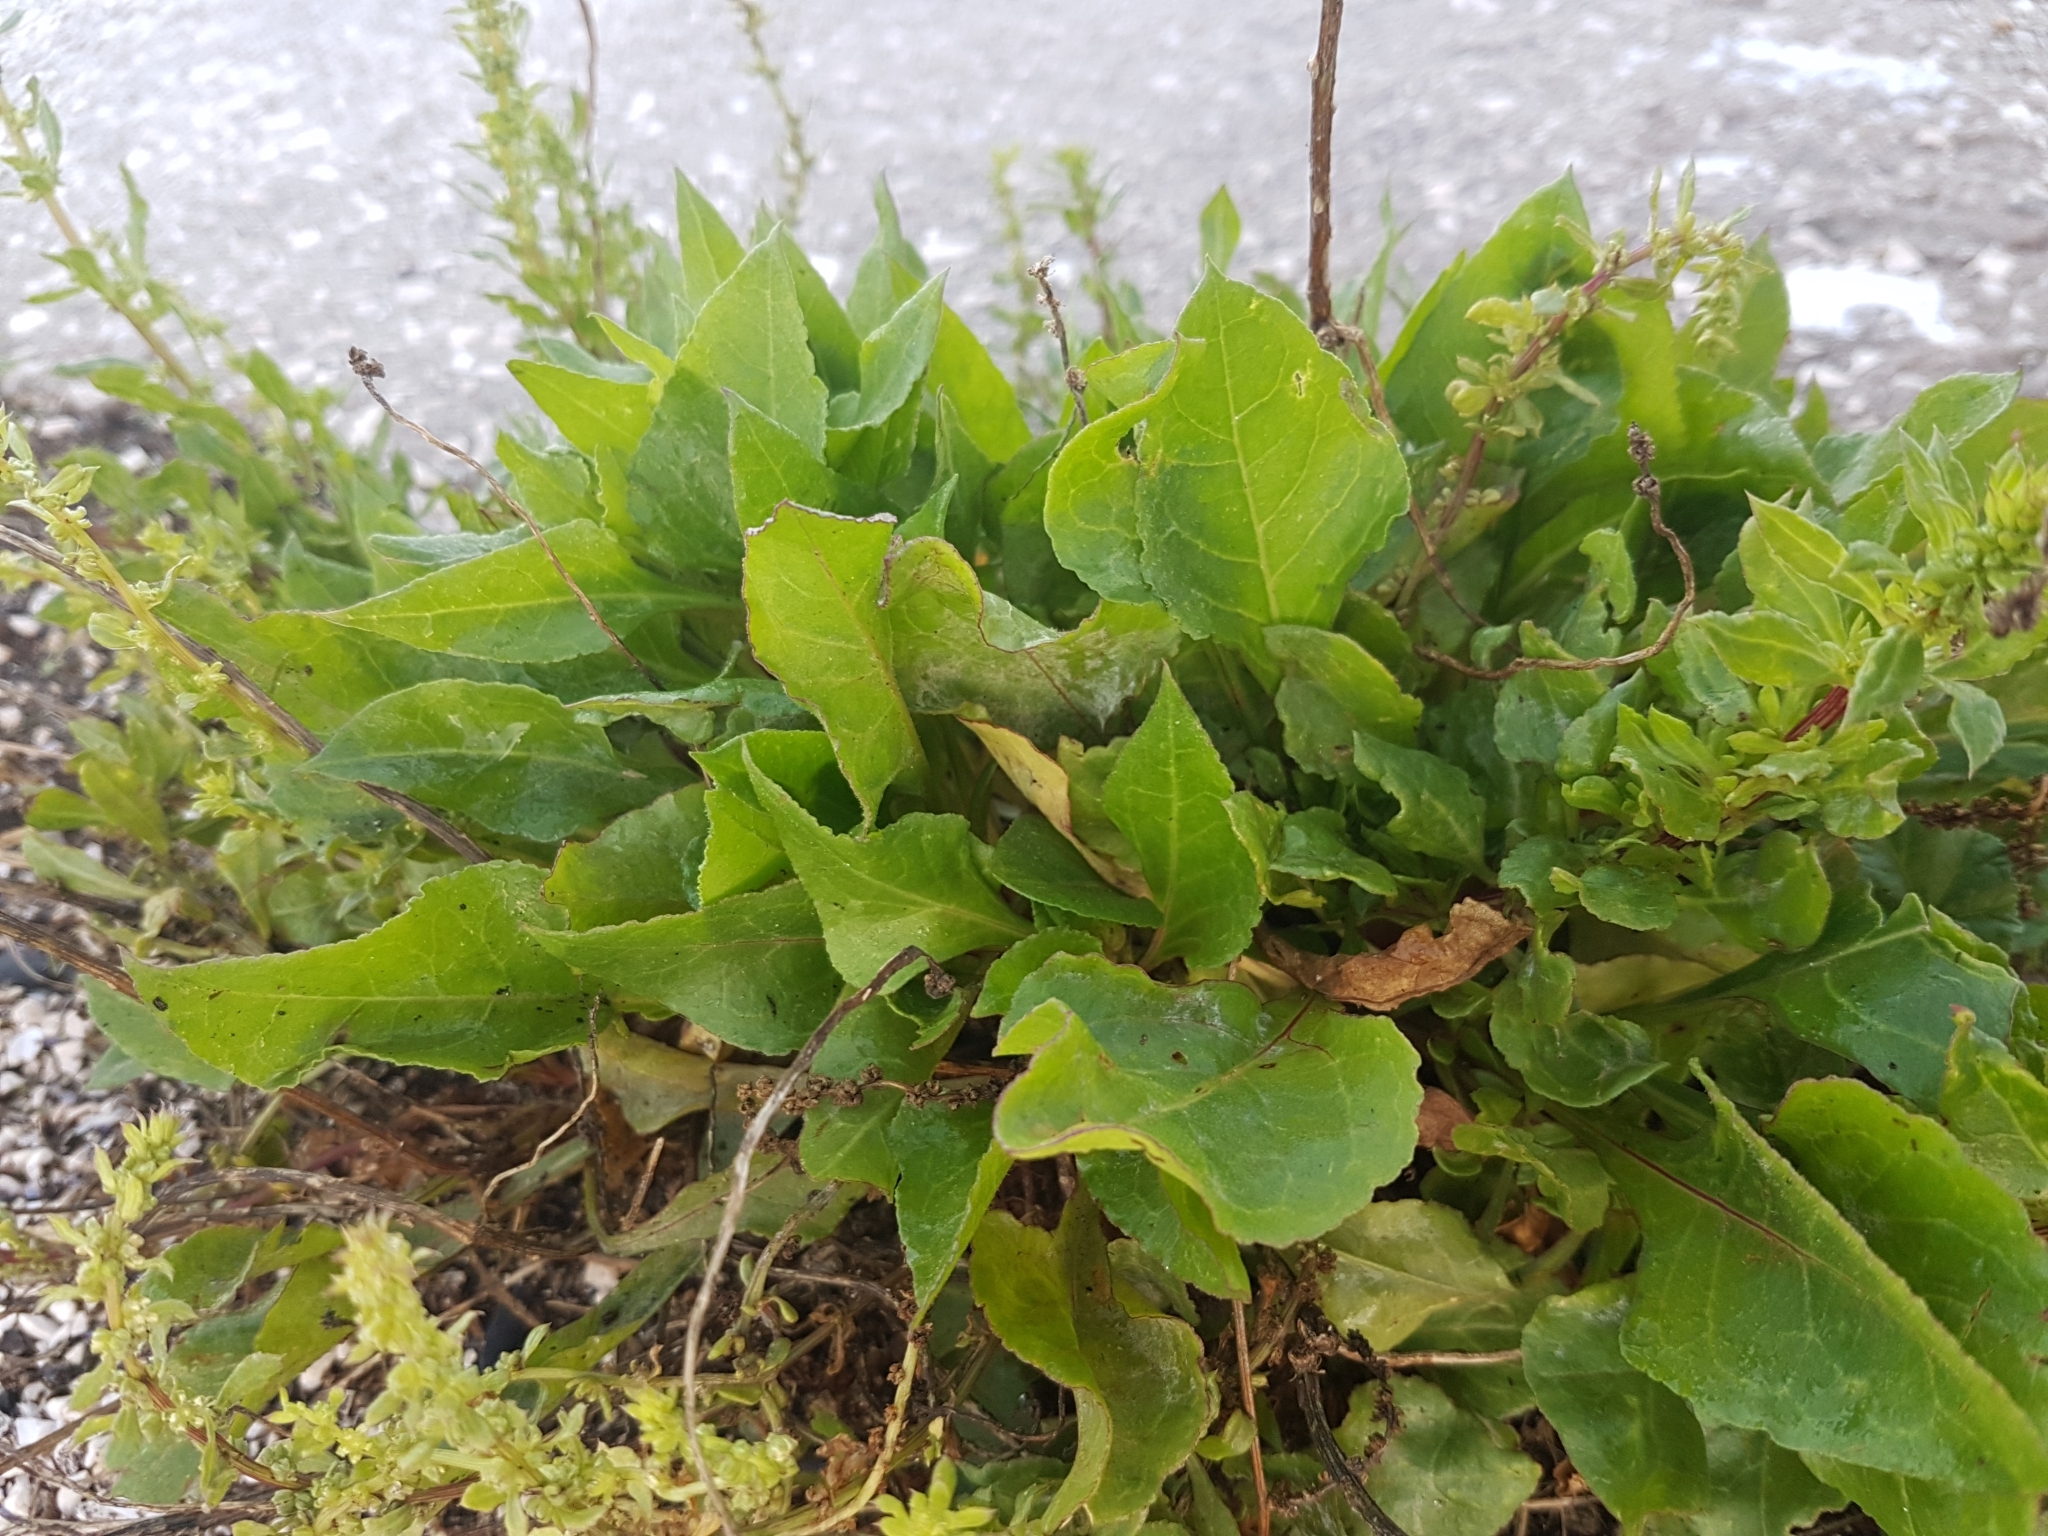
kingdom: Plantae
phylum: Tracheophyta
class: Magnoliopsida
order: Caryophyllales
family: Amaranthaceae
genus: Beta
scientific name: Beta vulgaris
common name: Beet
